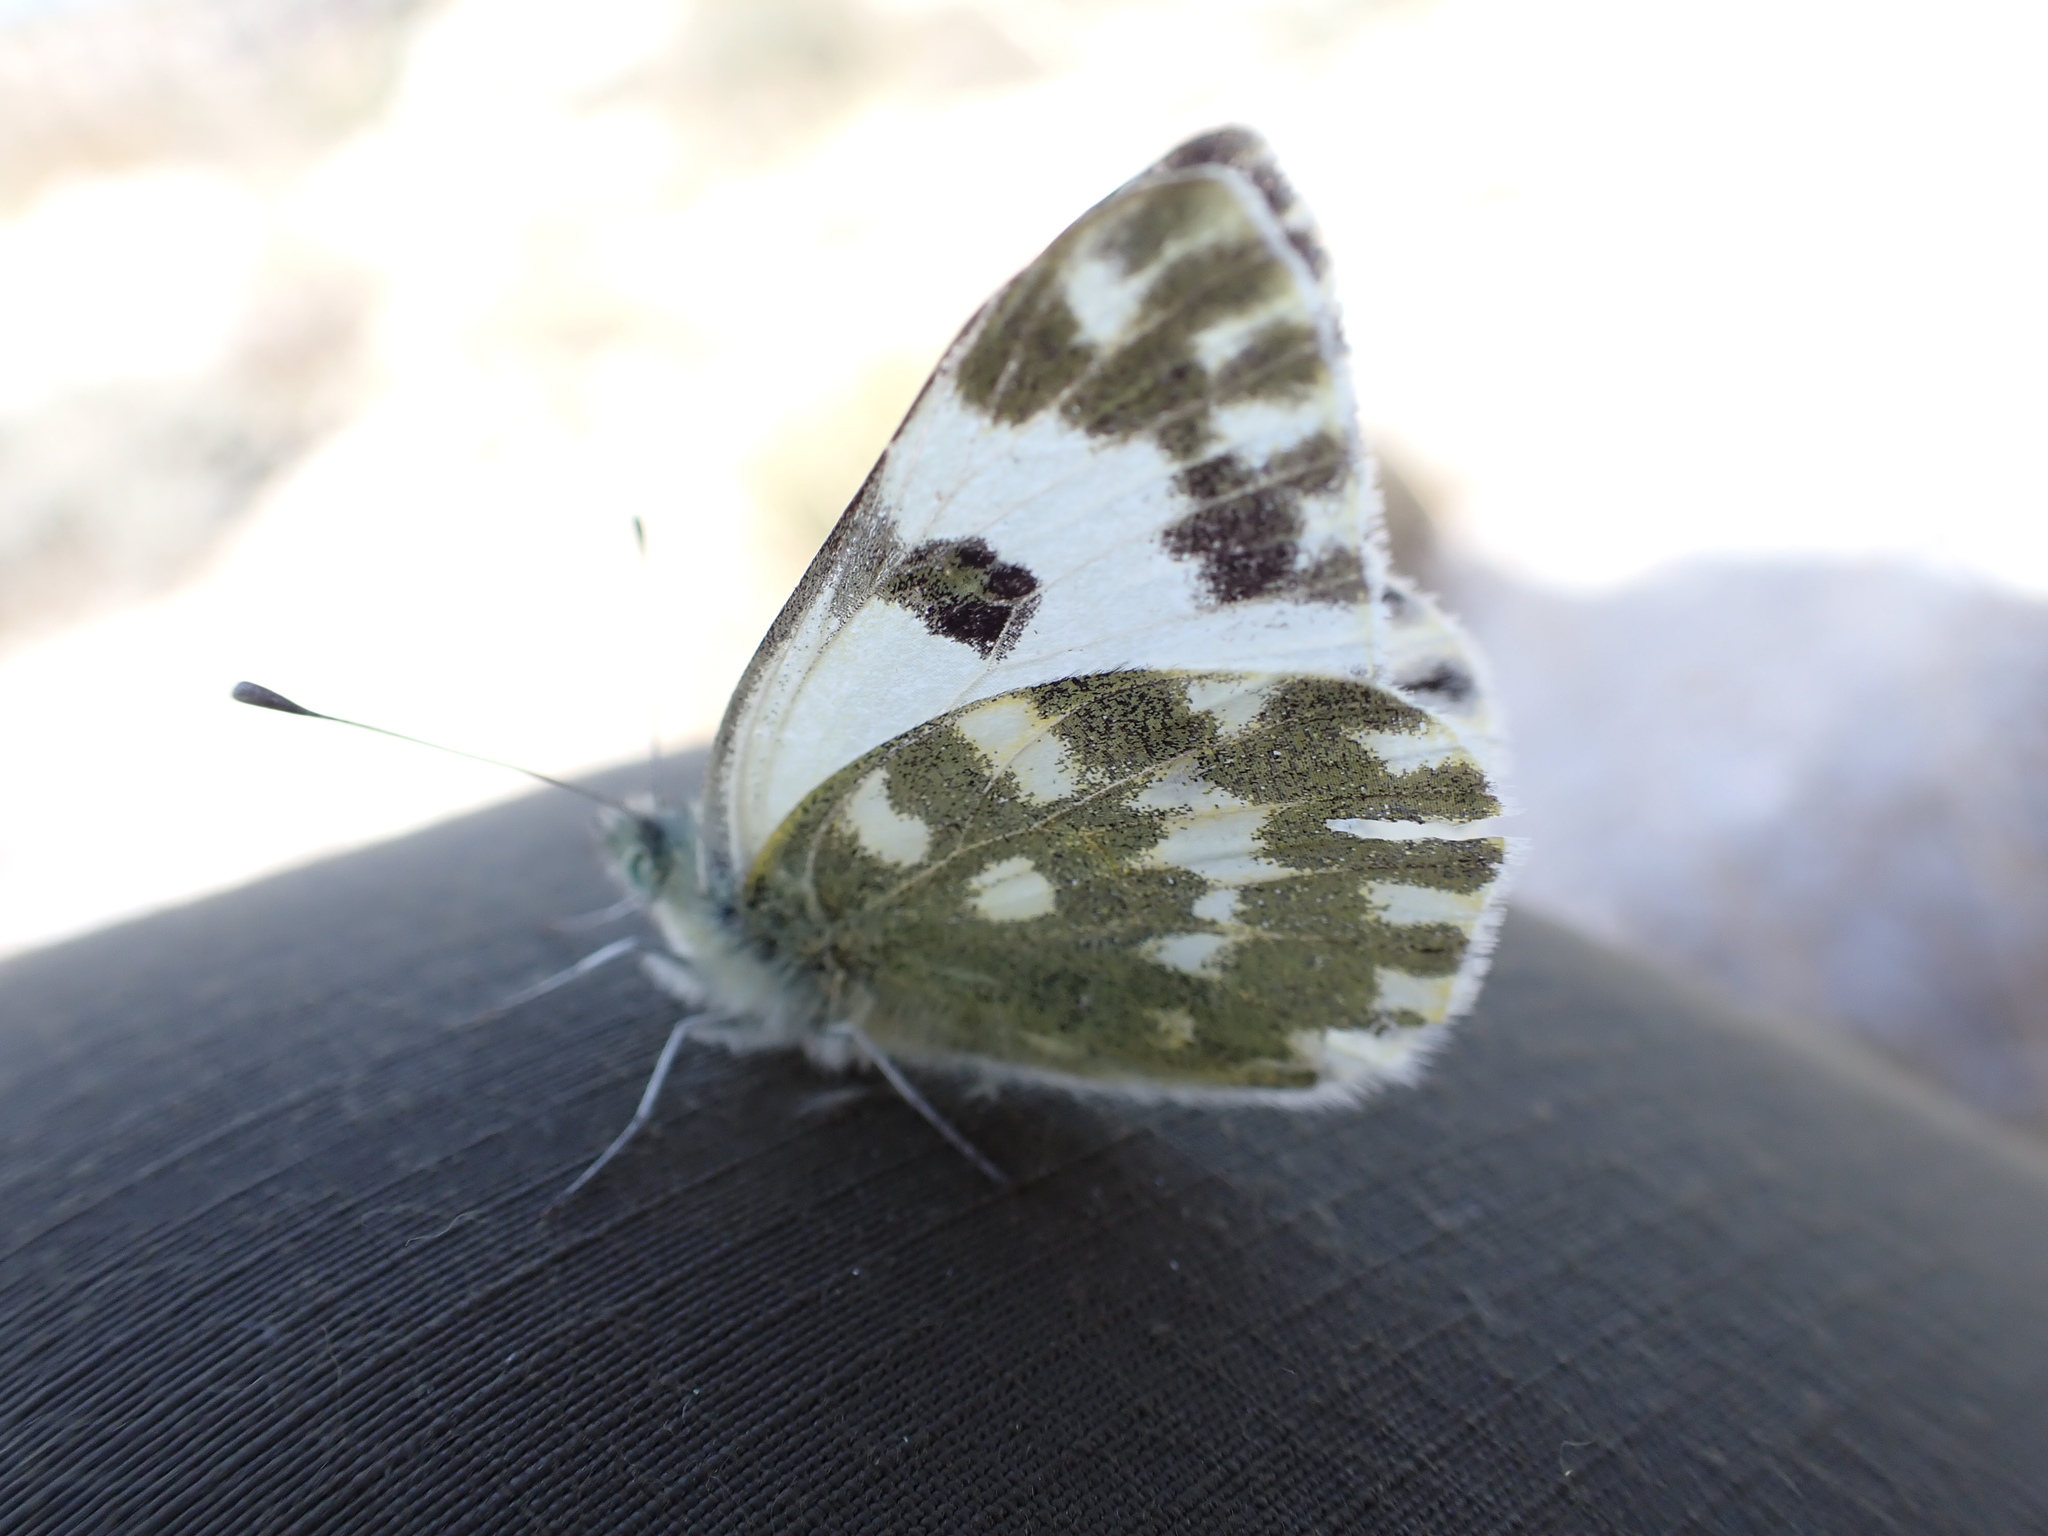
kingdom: Animalia
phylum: Arthropoda
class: Insecta
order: Lepidoptera
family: Pieridae
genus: Pontia
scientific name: Pontia daplidice
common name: Bath white
